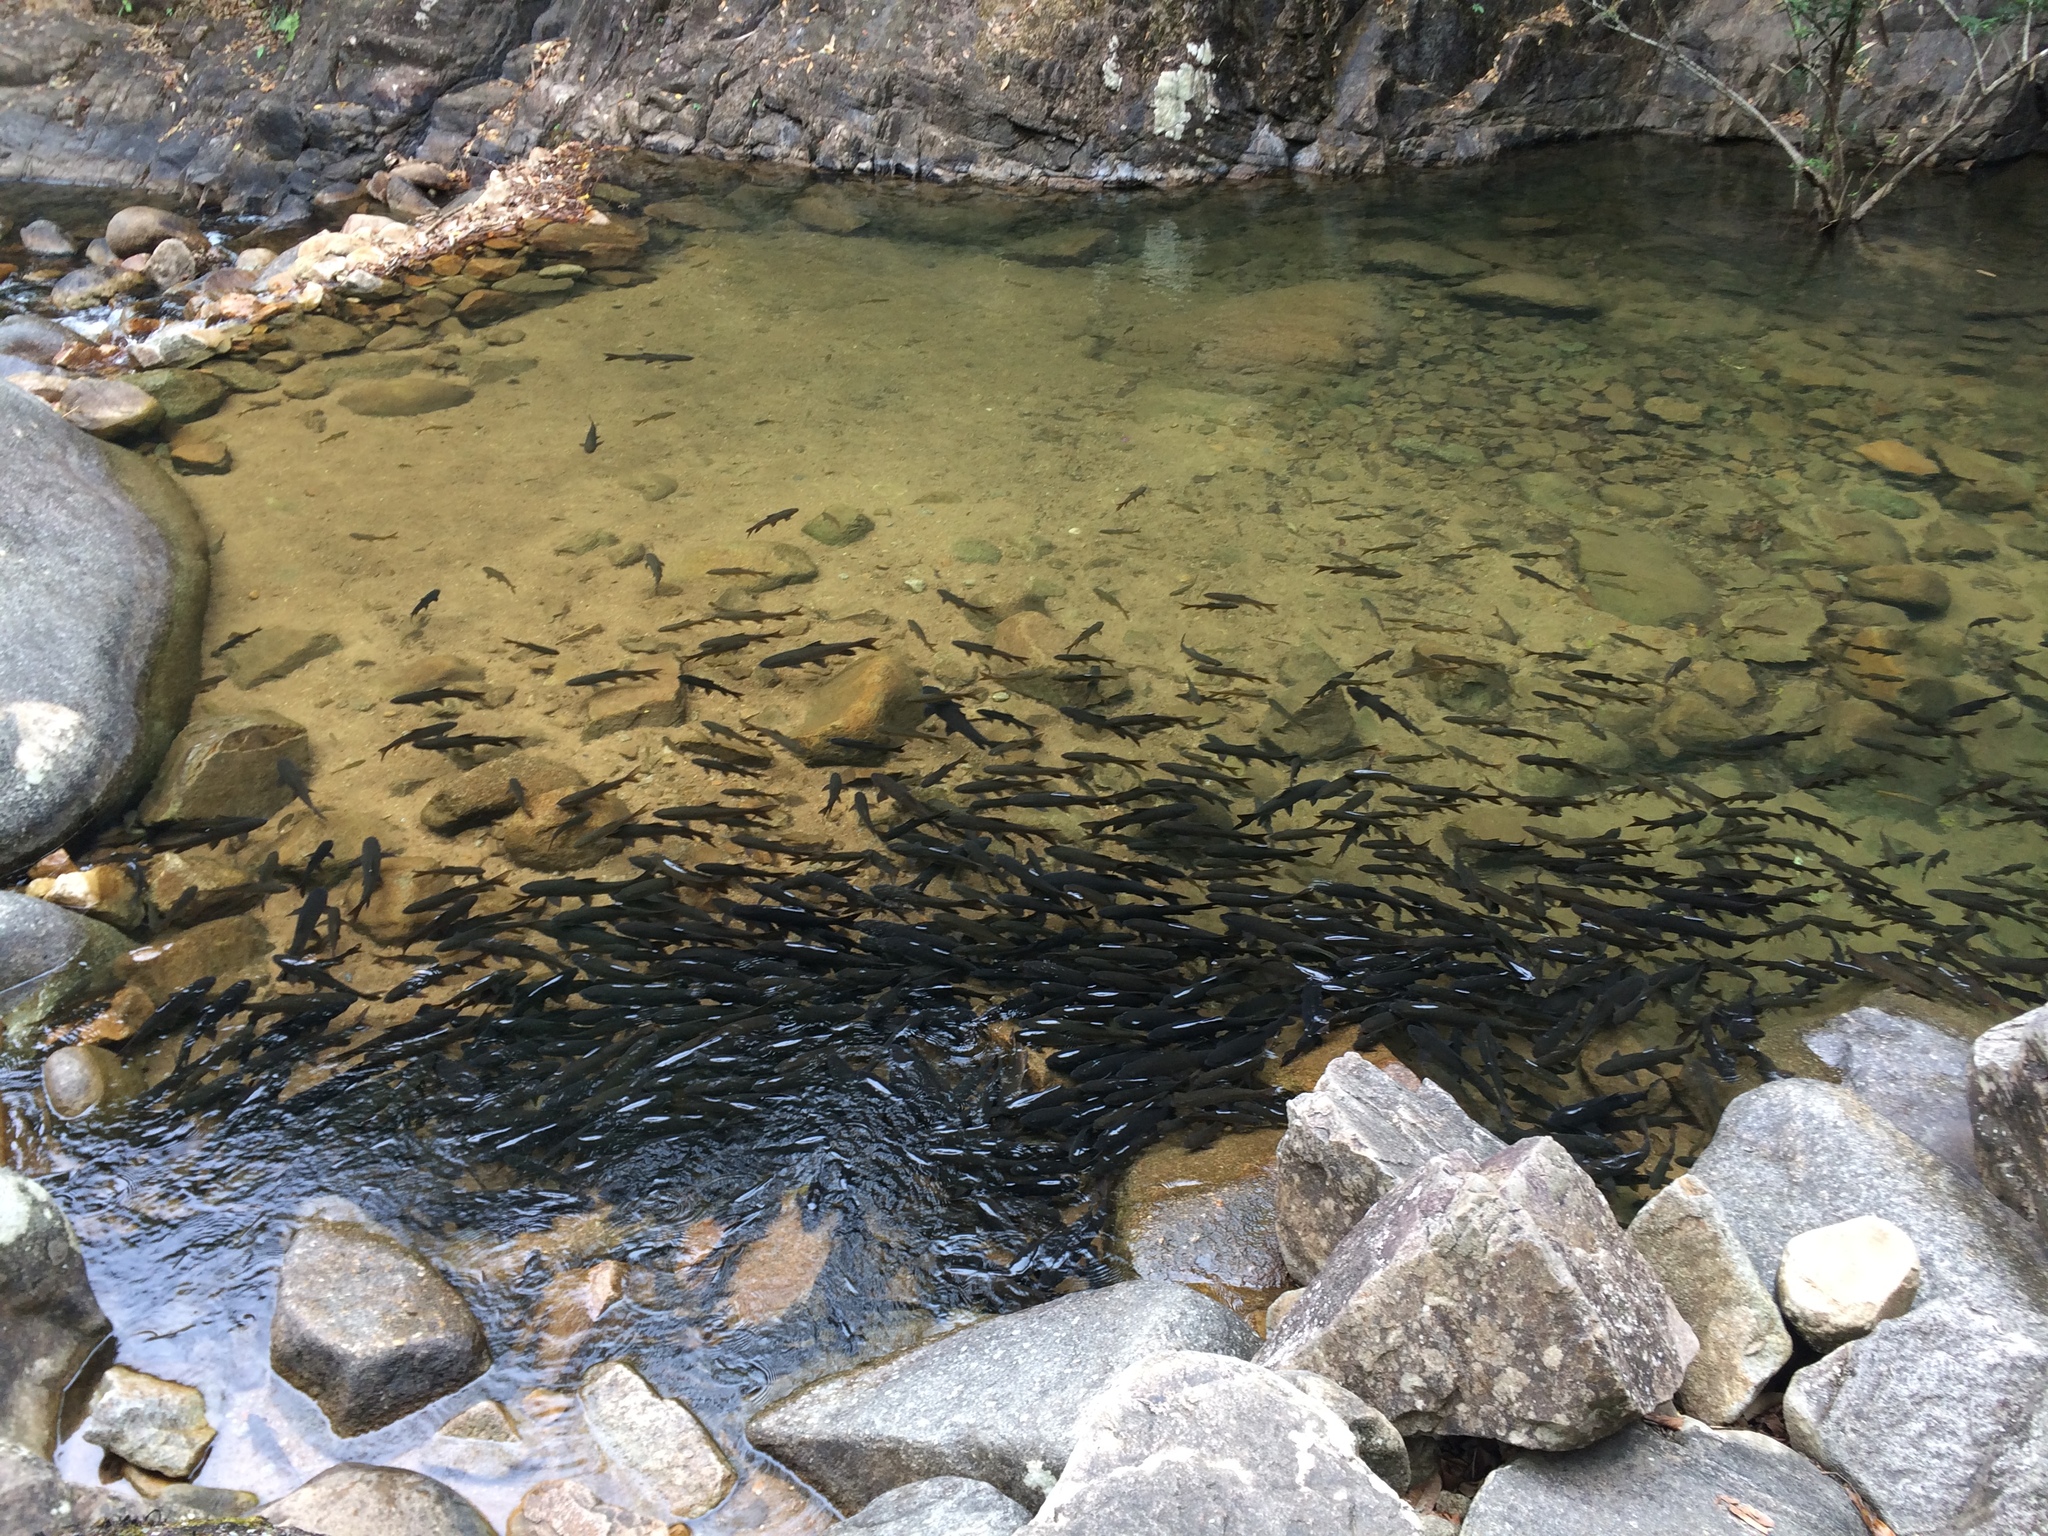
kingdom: Animalia
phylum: Chordata
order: Cypriniformes
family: Cyprinidae
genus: Neolissochilus
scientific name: Neolissochilus stracheyi
